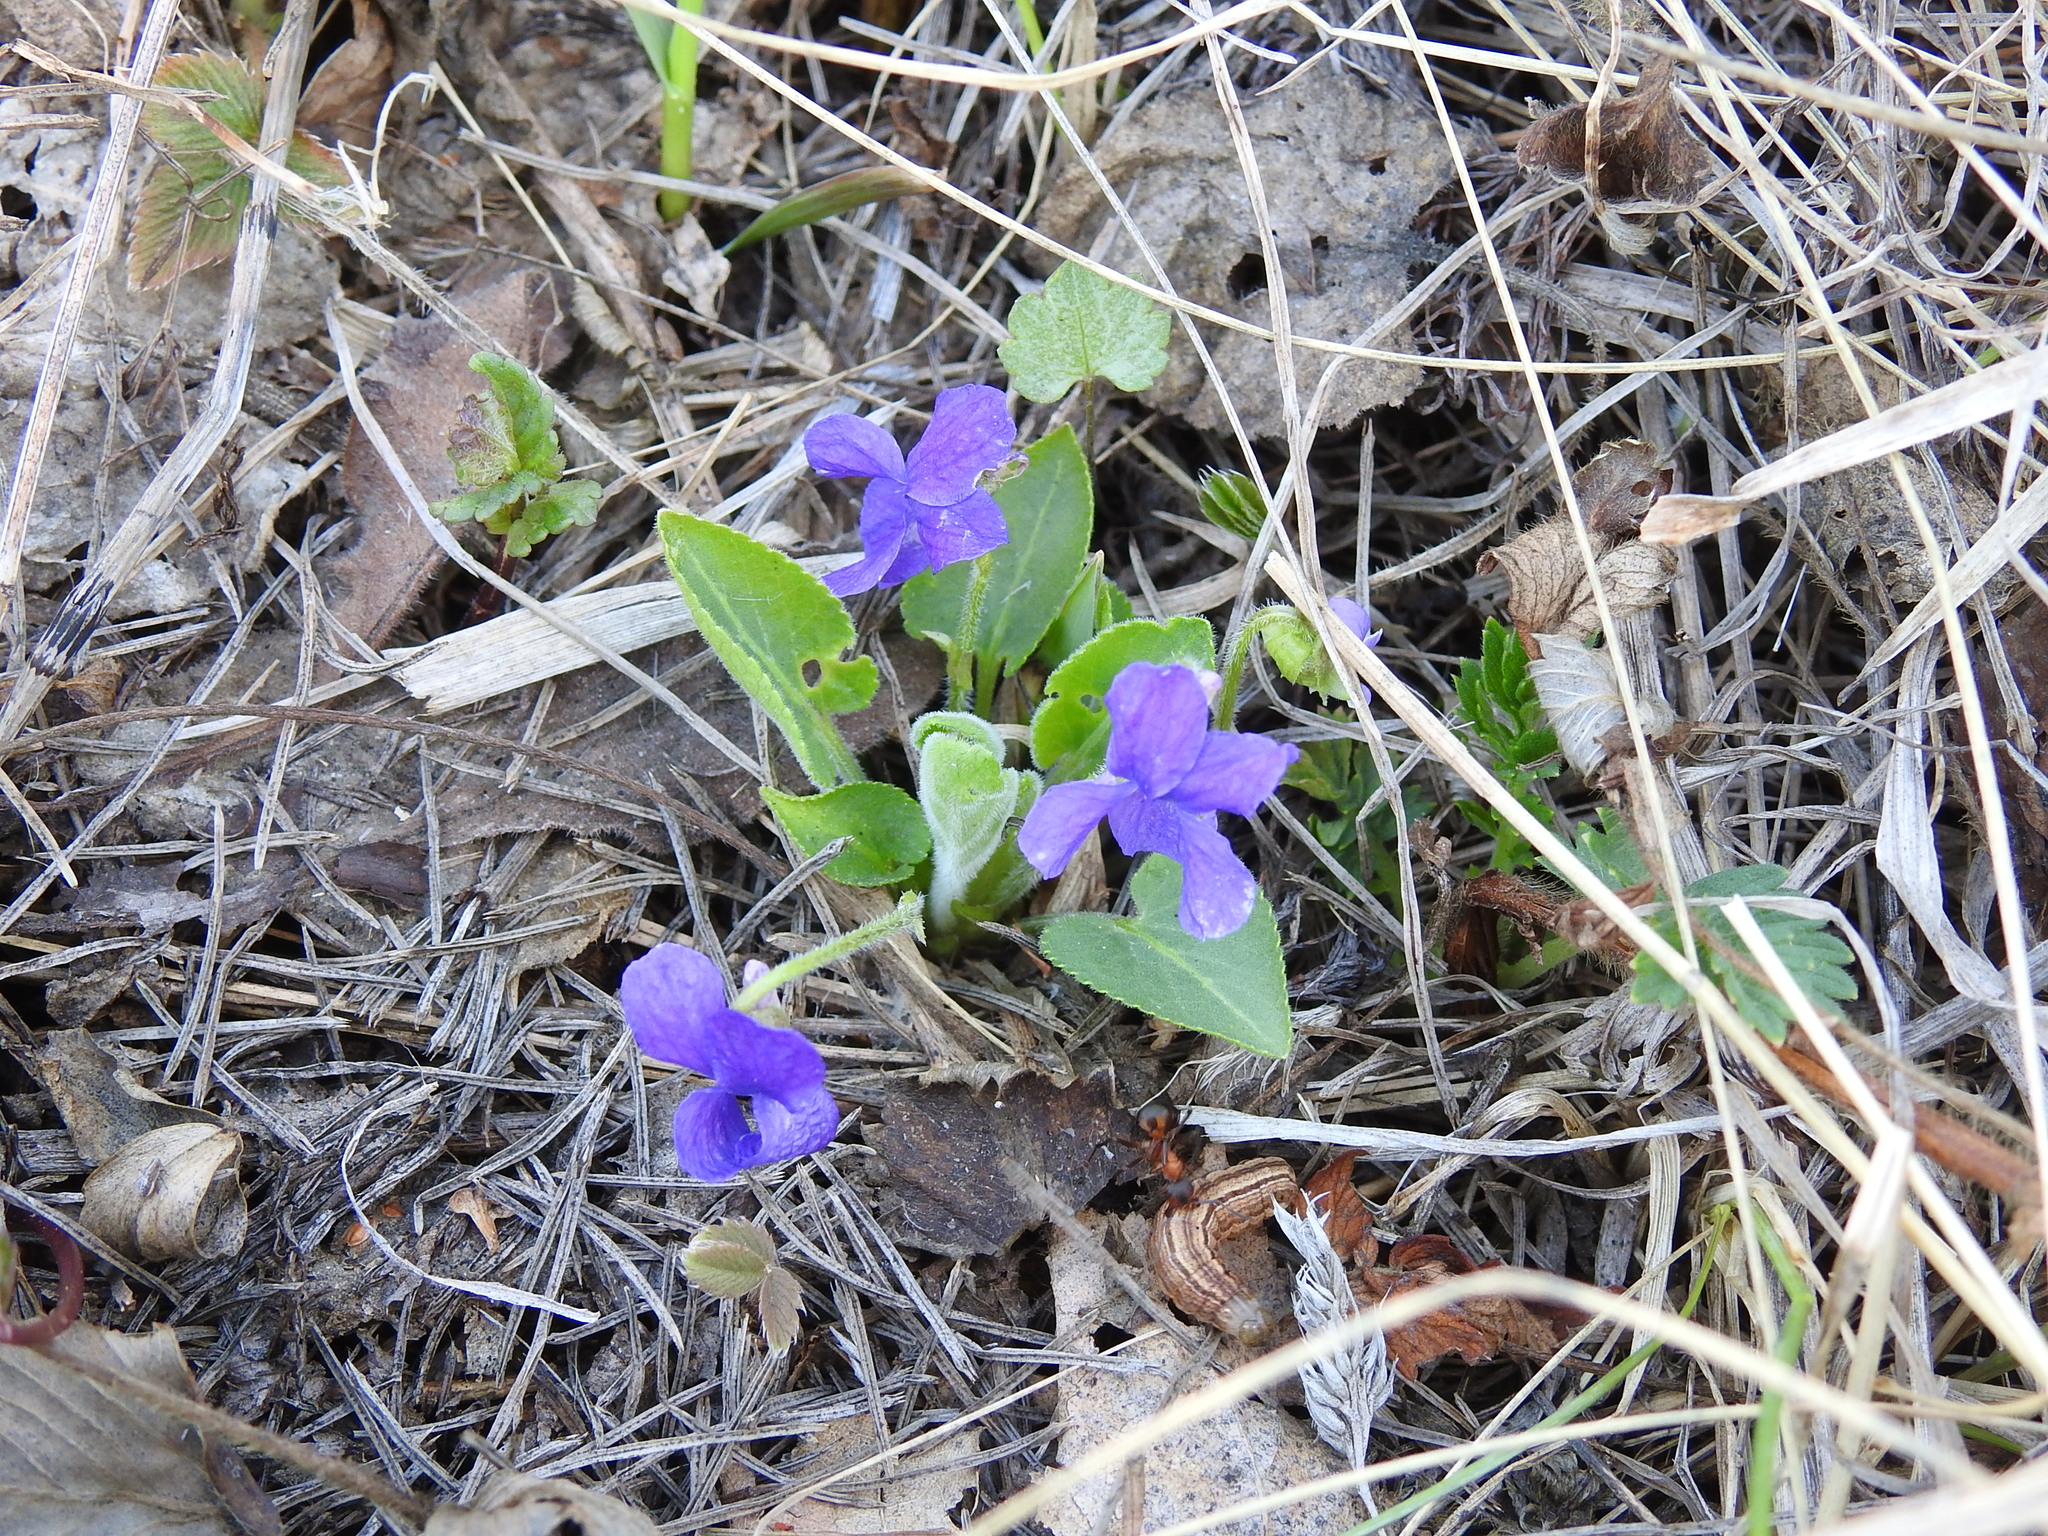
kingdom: Plantae
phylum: Tracheophyta
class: Magnoliopsida
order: Malpighiales
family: Violaceae
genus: Viola
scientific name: Viola hirta
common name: Hairy violet
